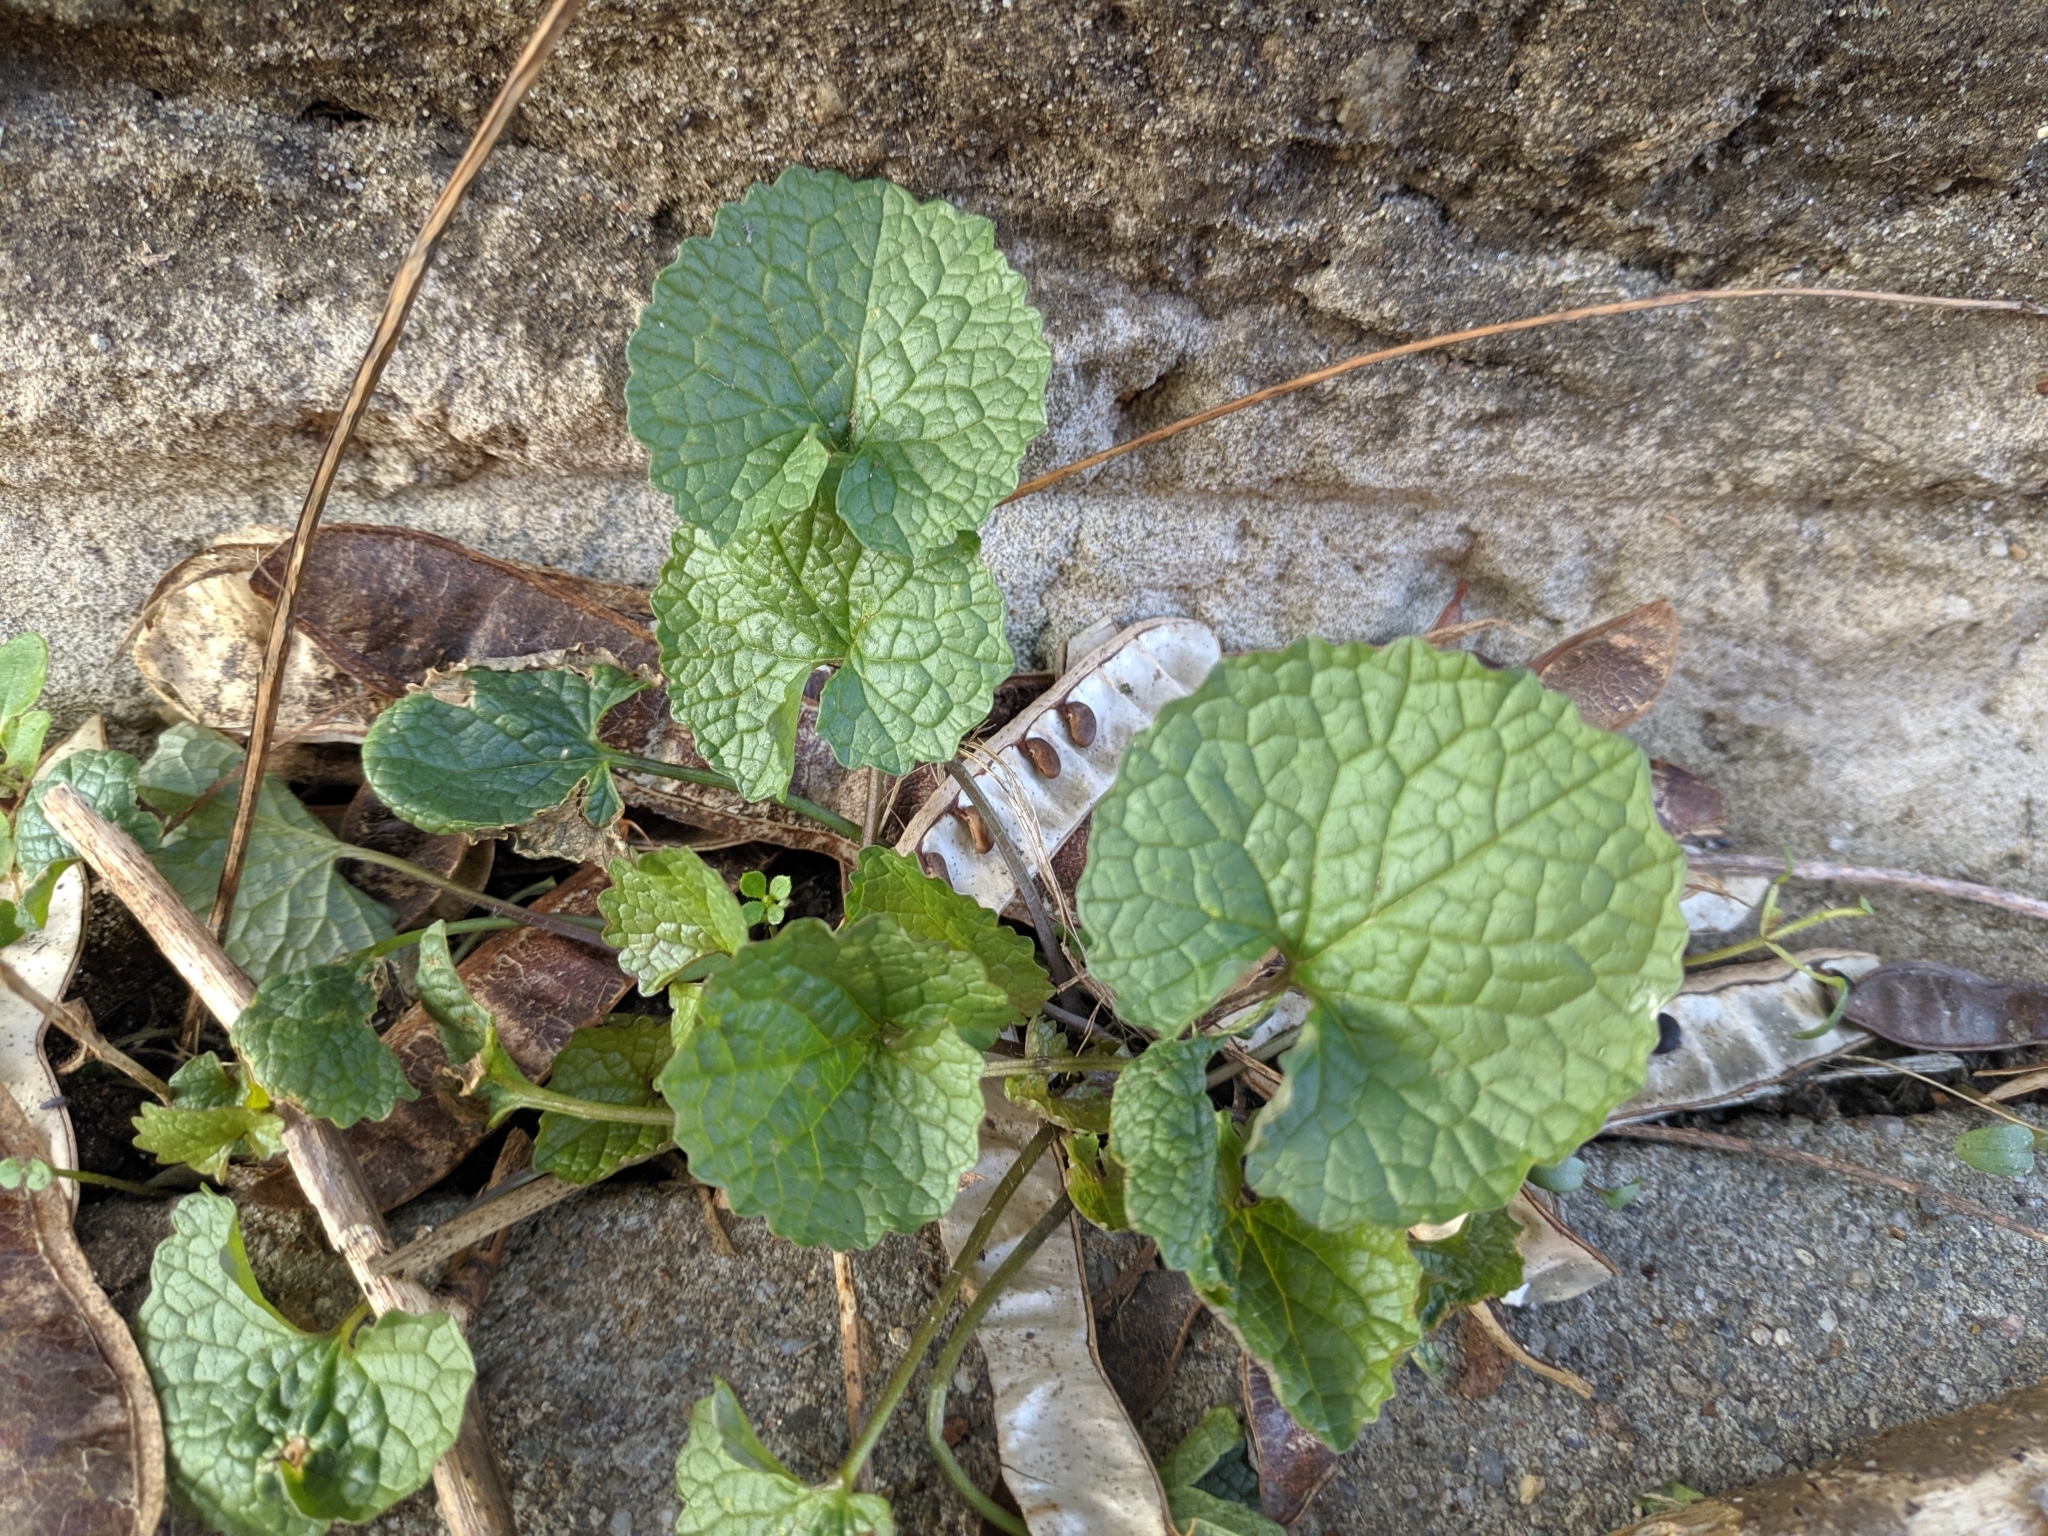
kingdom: Plantae
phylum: Tracheophyta
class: Magnoliopsida
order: Brassicales
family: Brassicaceae
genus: Alliaria
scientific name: Alliaria petiolata
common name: Garlic mustard
